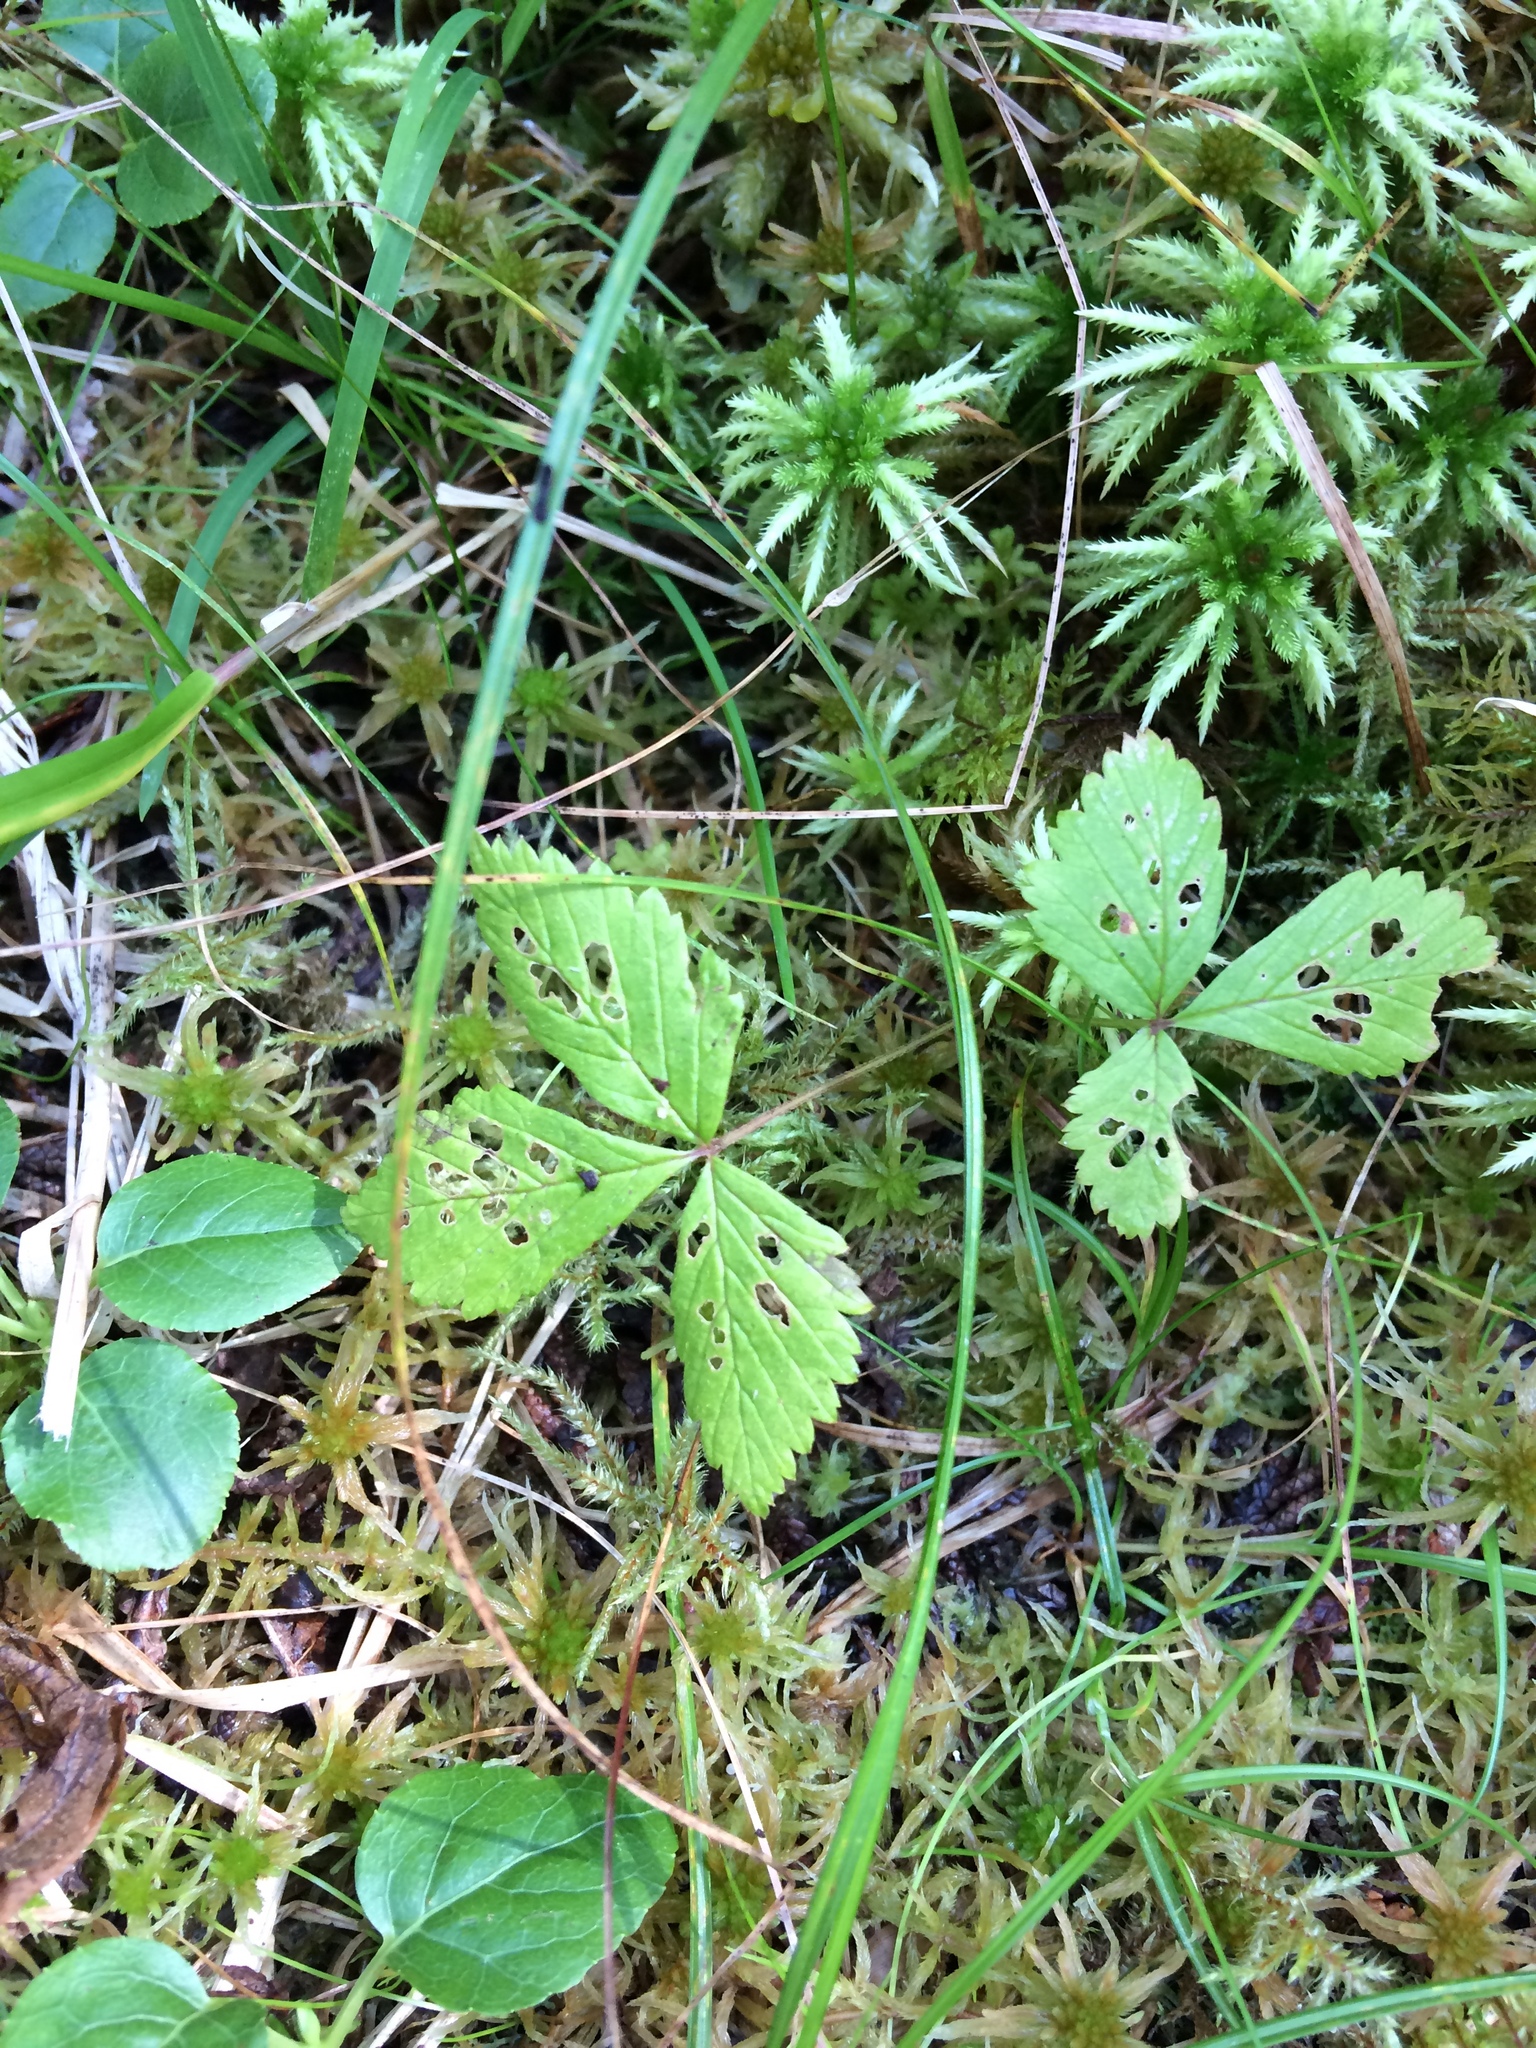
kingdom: Plantae
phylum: Tracheophyta
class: Magnoliopsida
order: Rosales
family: Rosaceae
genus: Rubus
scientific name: Rubus pubescens
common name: Dwarf raspberry
